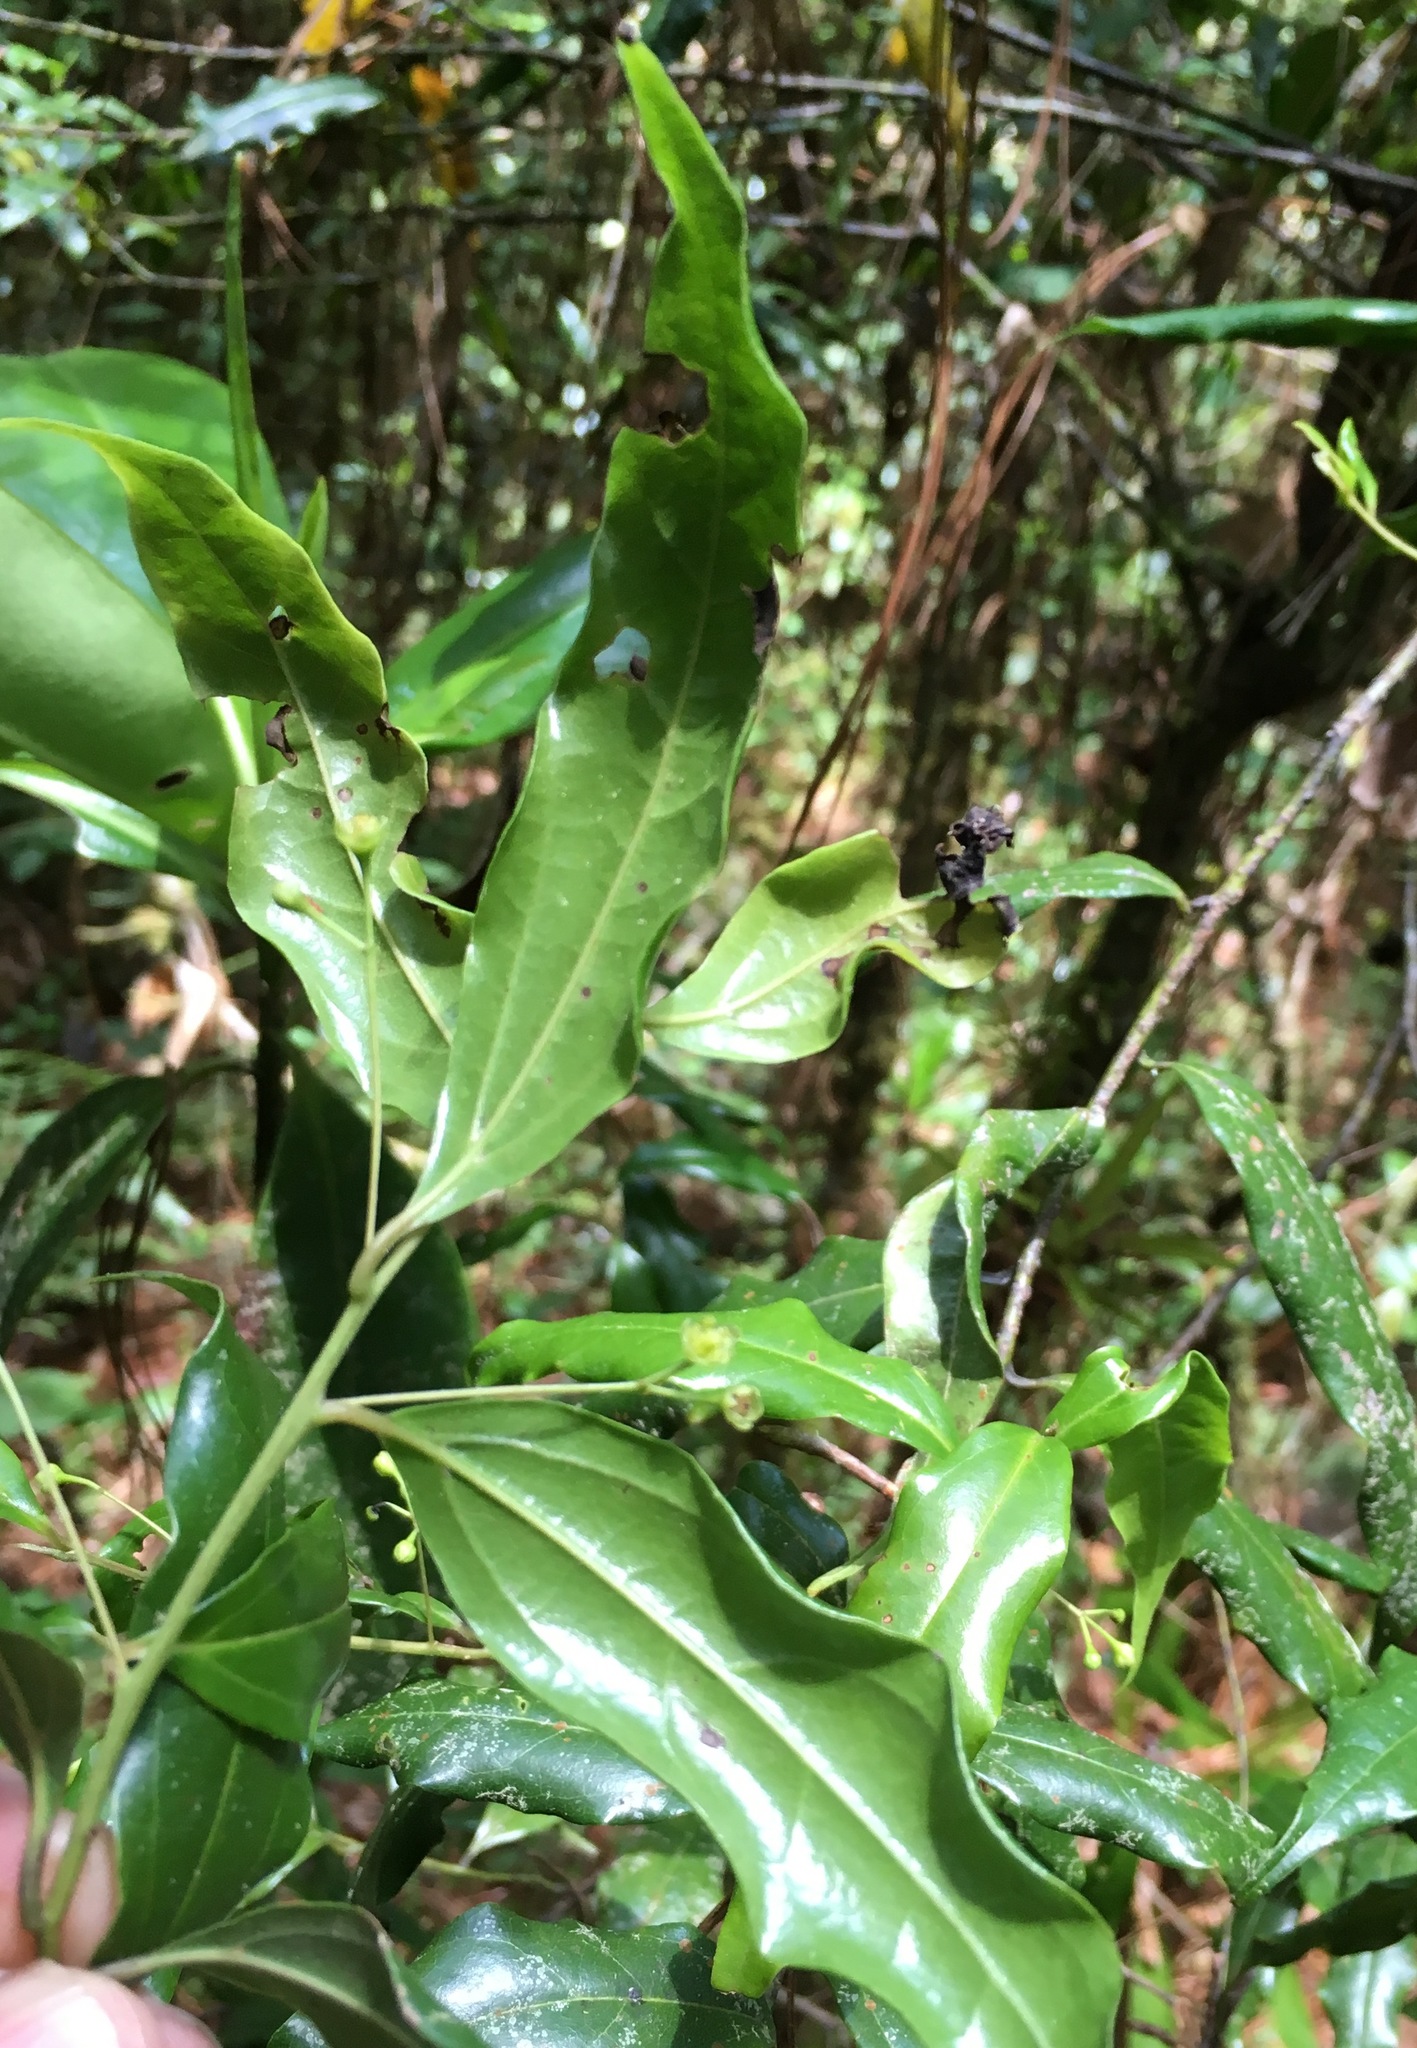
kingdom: Plantae
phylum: Tracheophyta
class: Magnoliopsida
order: Laurales
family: Lauraceae
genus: Aiouea
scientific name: Aiouea chiapensis
